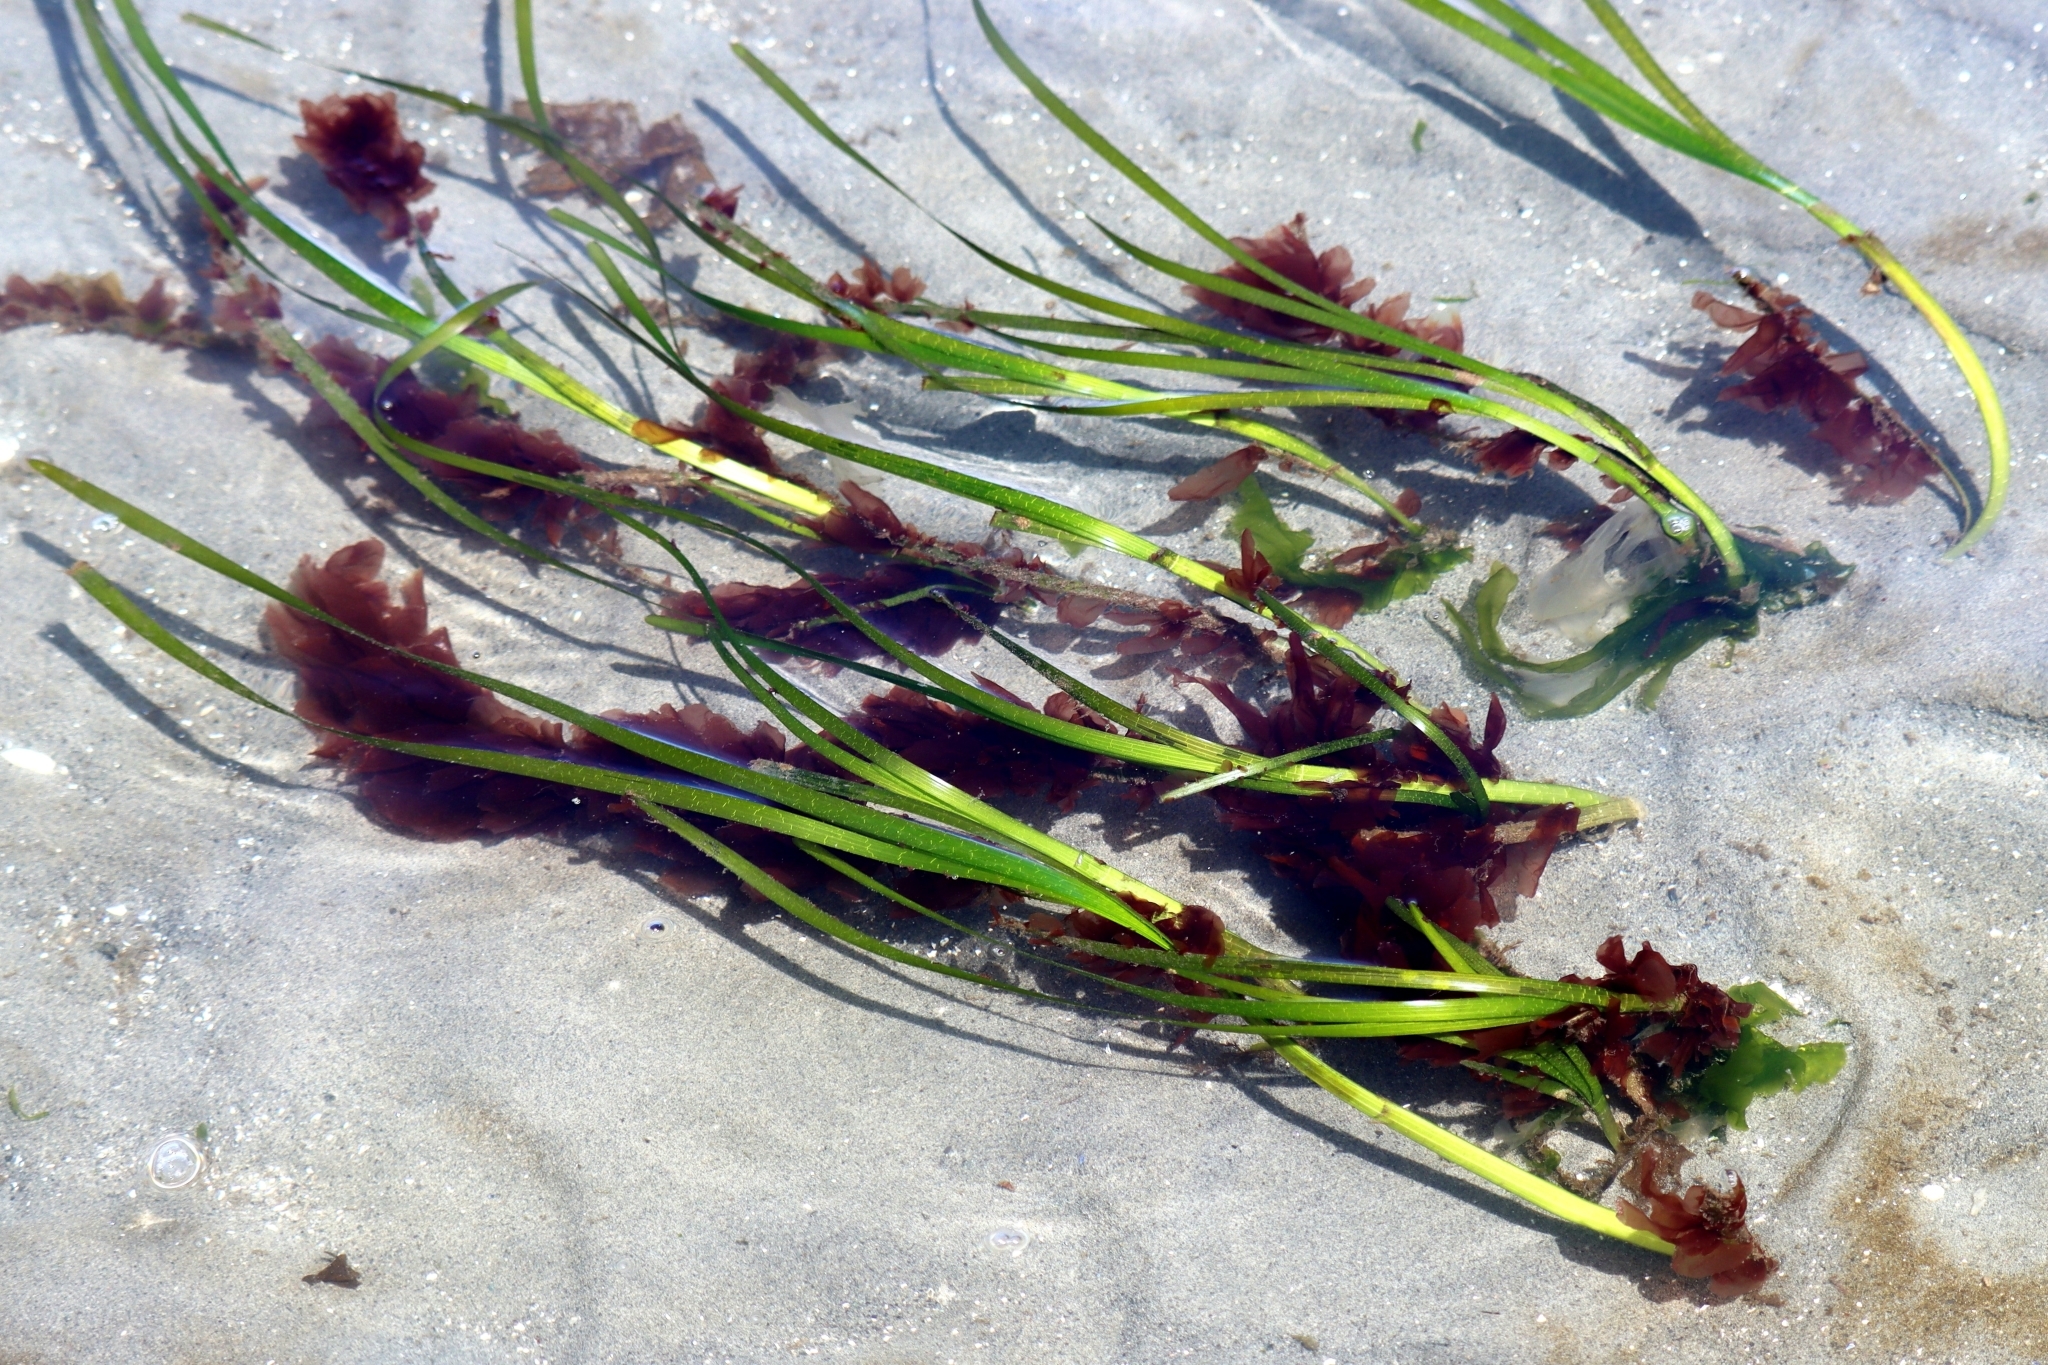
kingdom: Plantae
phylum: Rhodophyta
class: Compsopogonophyceae
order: Erythropeltidales
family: Erythrotrichiaceae
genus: Smithora
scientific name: Smithora naiadum
